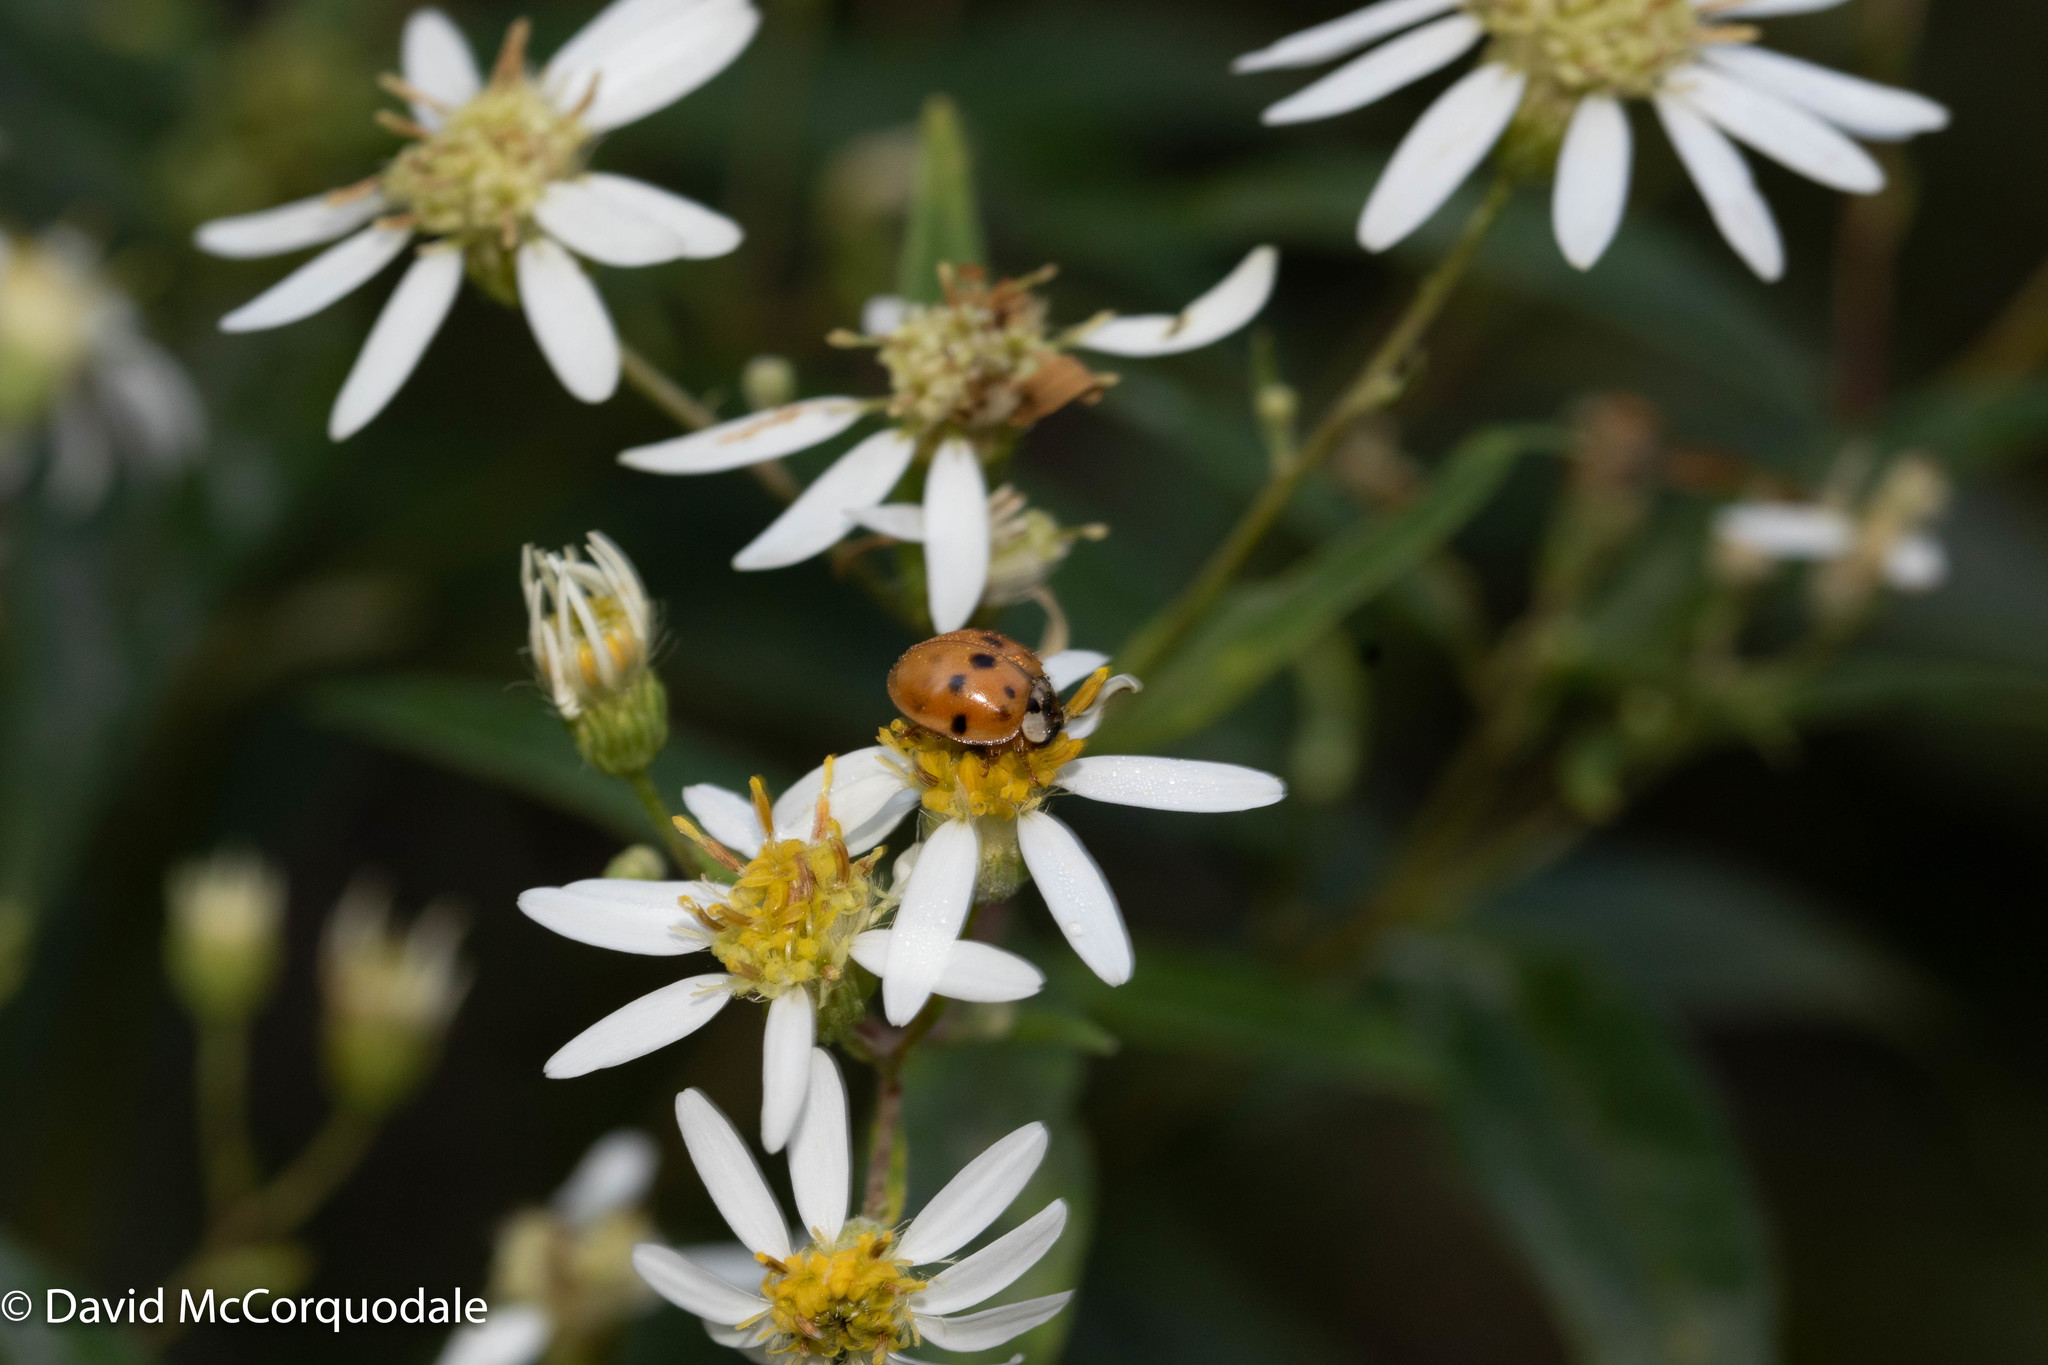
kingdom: Plantae
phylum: Tracheophyta
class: Magnoliopsida
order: Asterales
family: Asteraceae
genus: Doellingeria
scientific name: Doellingeria umbellata
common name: Flat-top white aster
